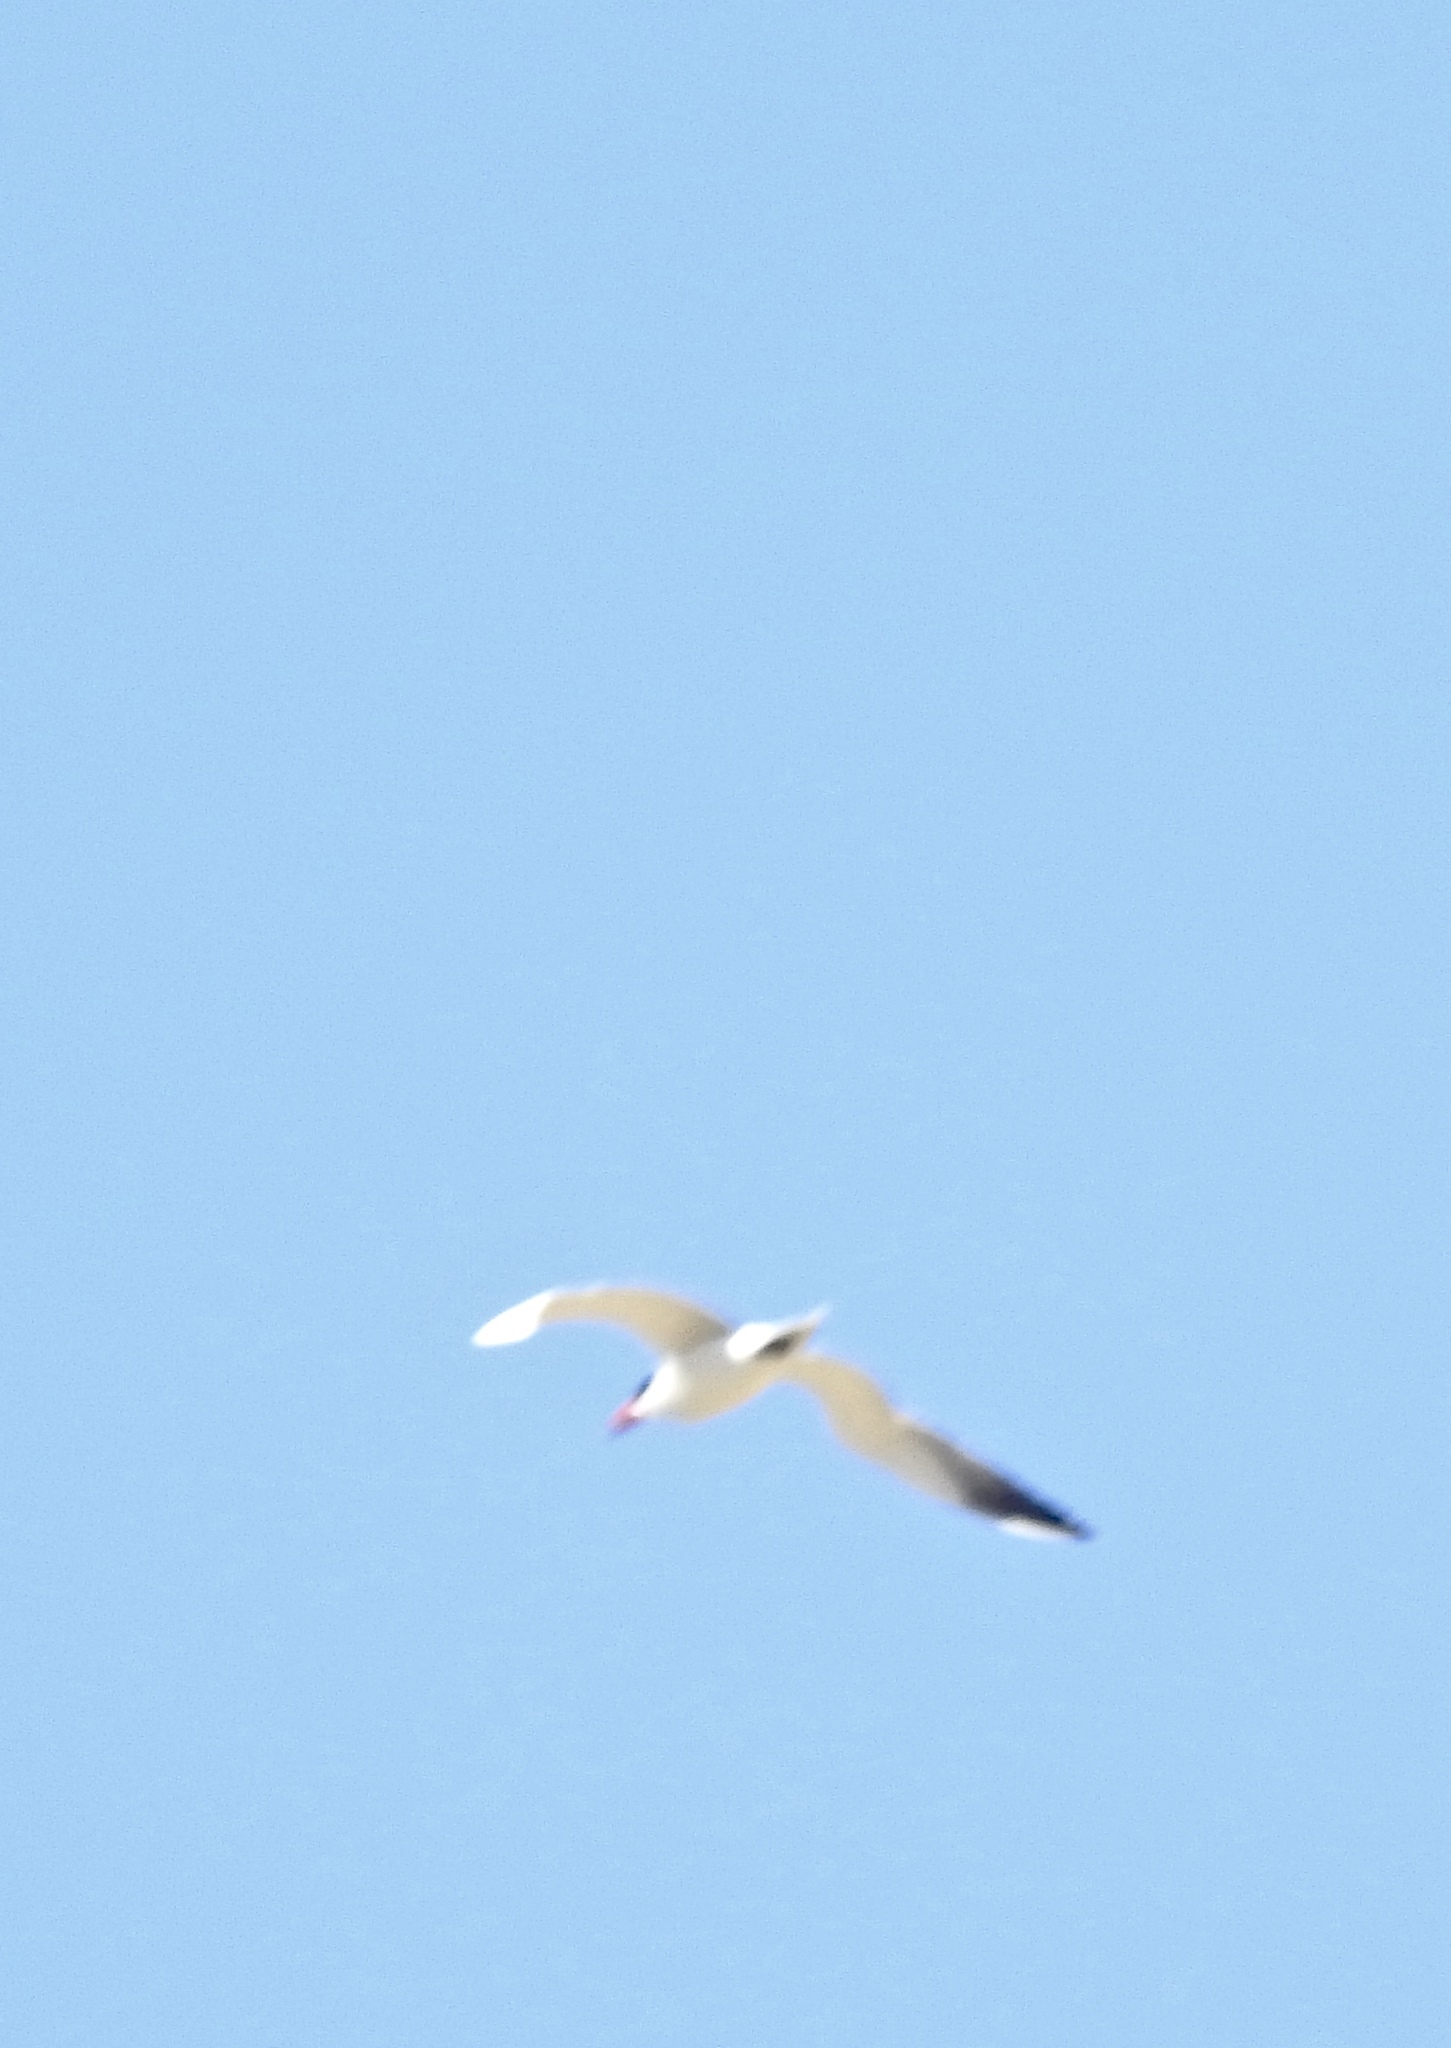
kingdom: Animalia
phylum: Chordata
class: Aves
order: Charadriiformes
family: Laridae
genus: Hydroprogne
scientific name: Hydroprogne caspia
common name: Caspian tern
